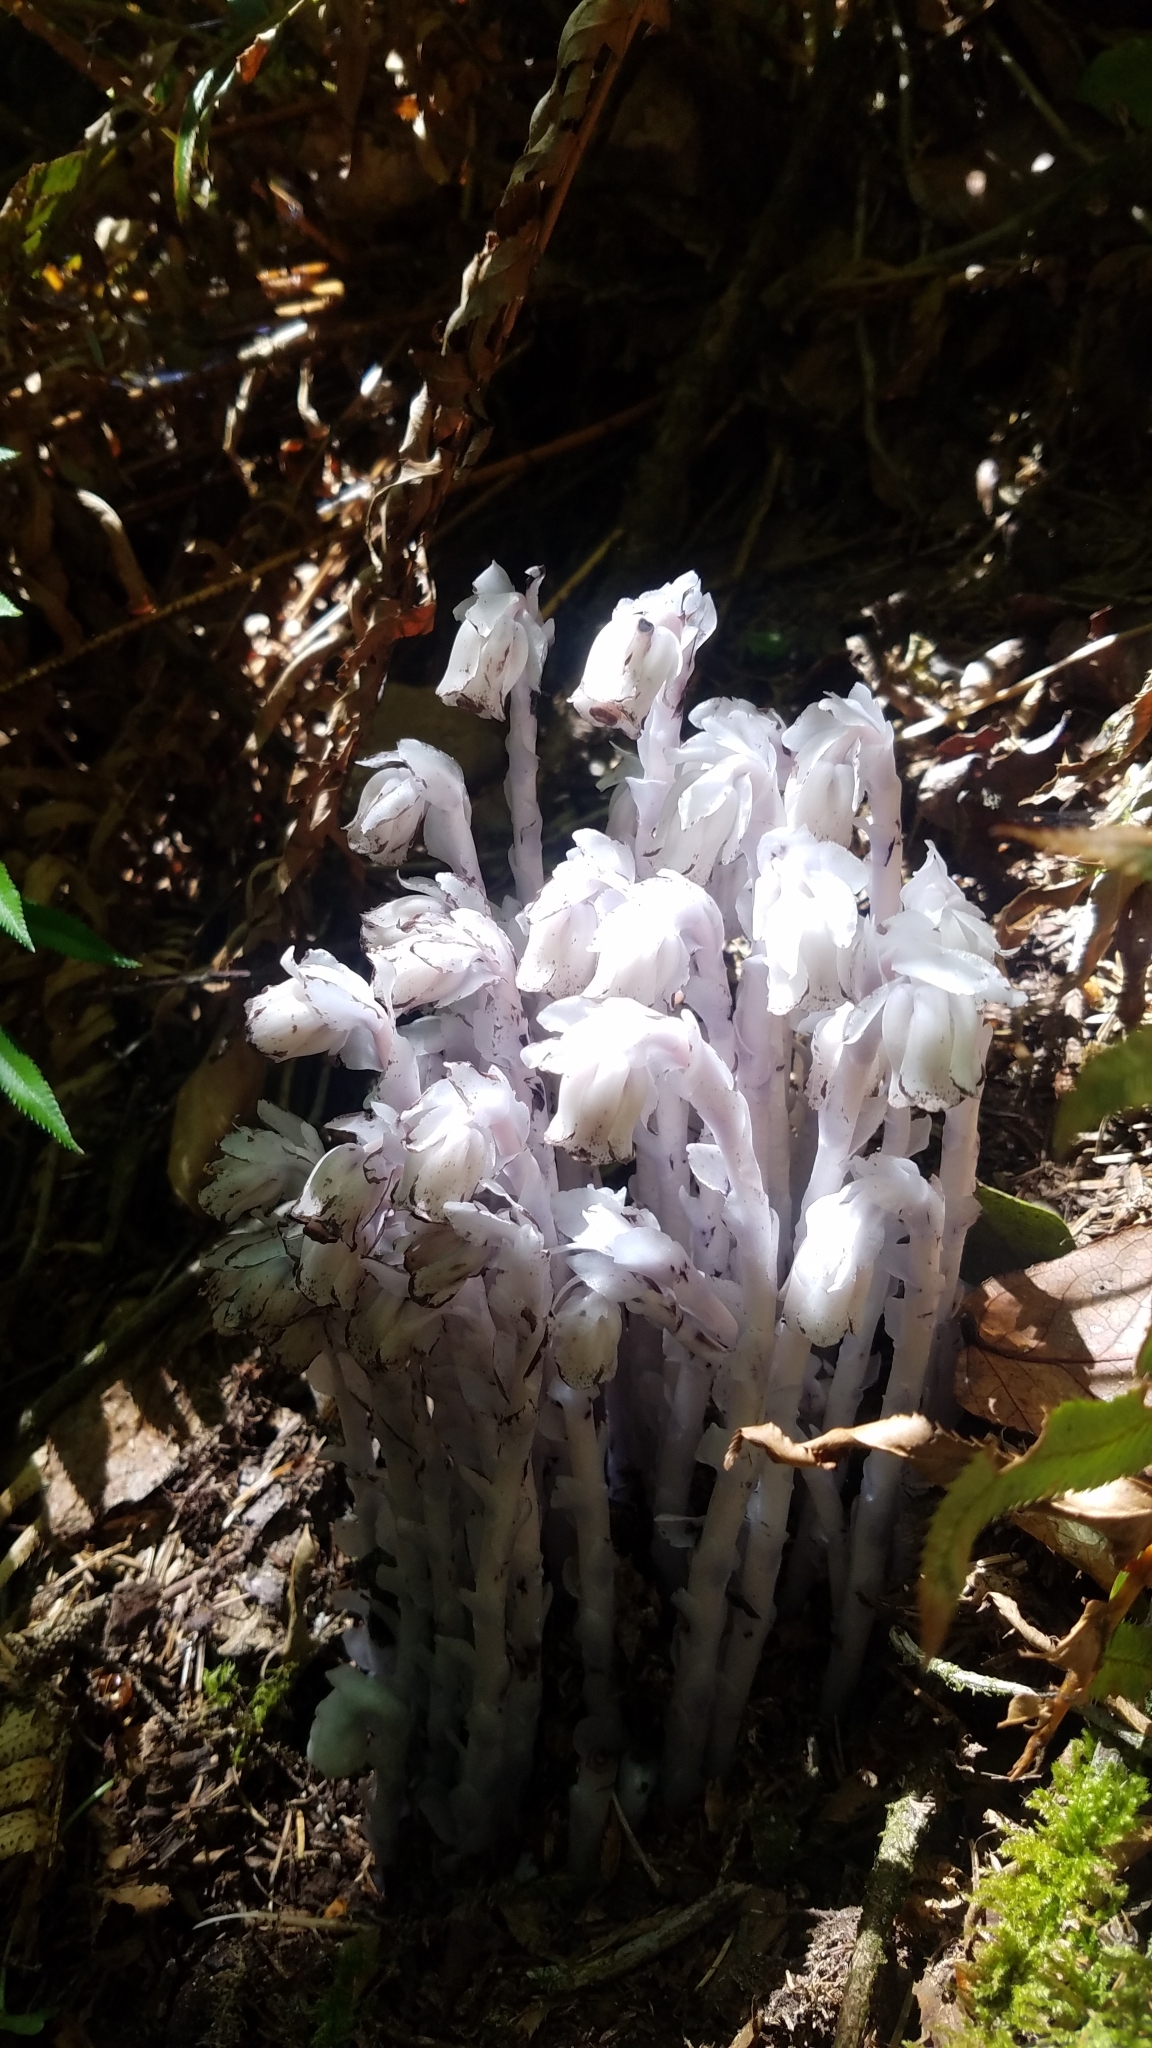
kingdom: Plantae
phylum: Tracheophyta
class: Magnoliopsida
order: Ericales
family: Ericaceae
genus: Monotropa
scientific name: Monotropa uniflora
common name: Convulsion root
